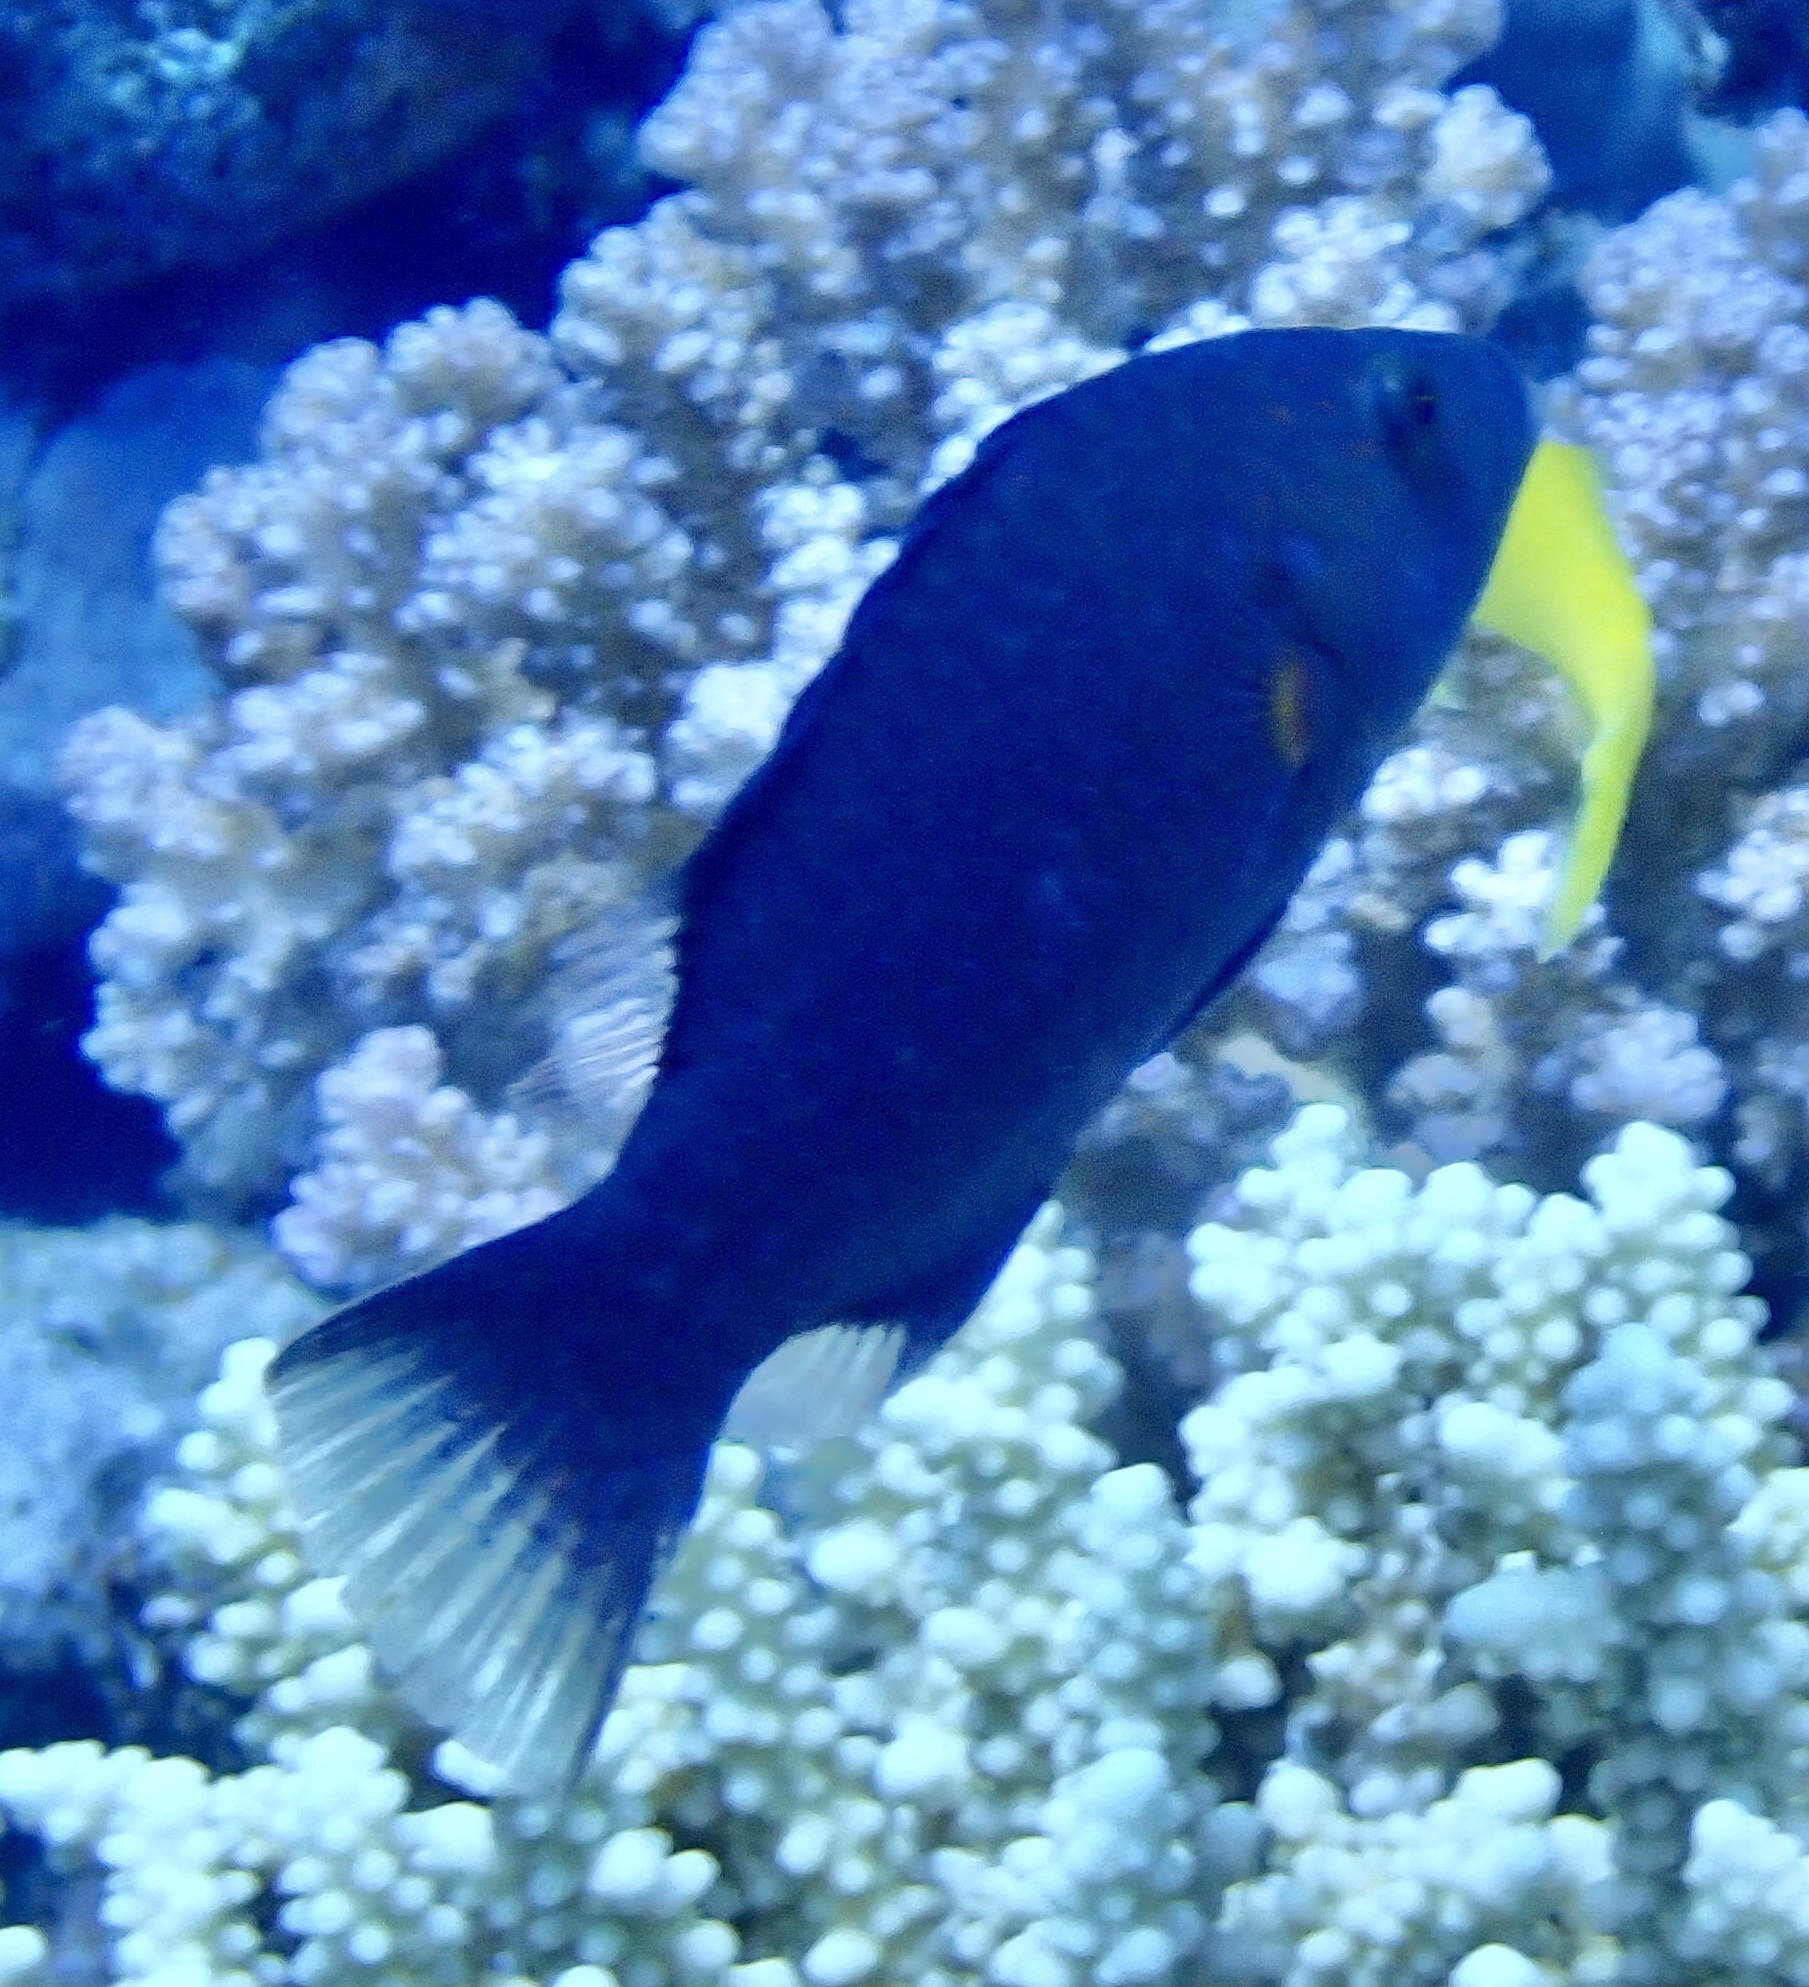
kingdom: Animalia
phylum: Chordata
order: Perciformes
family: Labridae
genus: Oxycheilinus
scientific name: Oxycheilinus digramma
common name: Bandcheek wrasse
